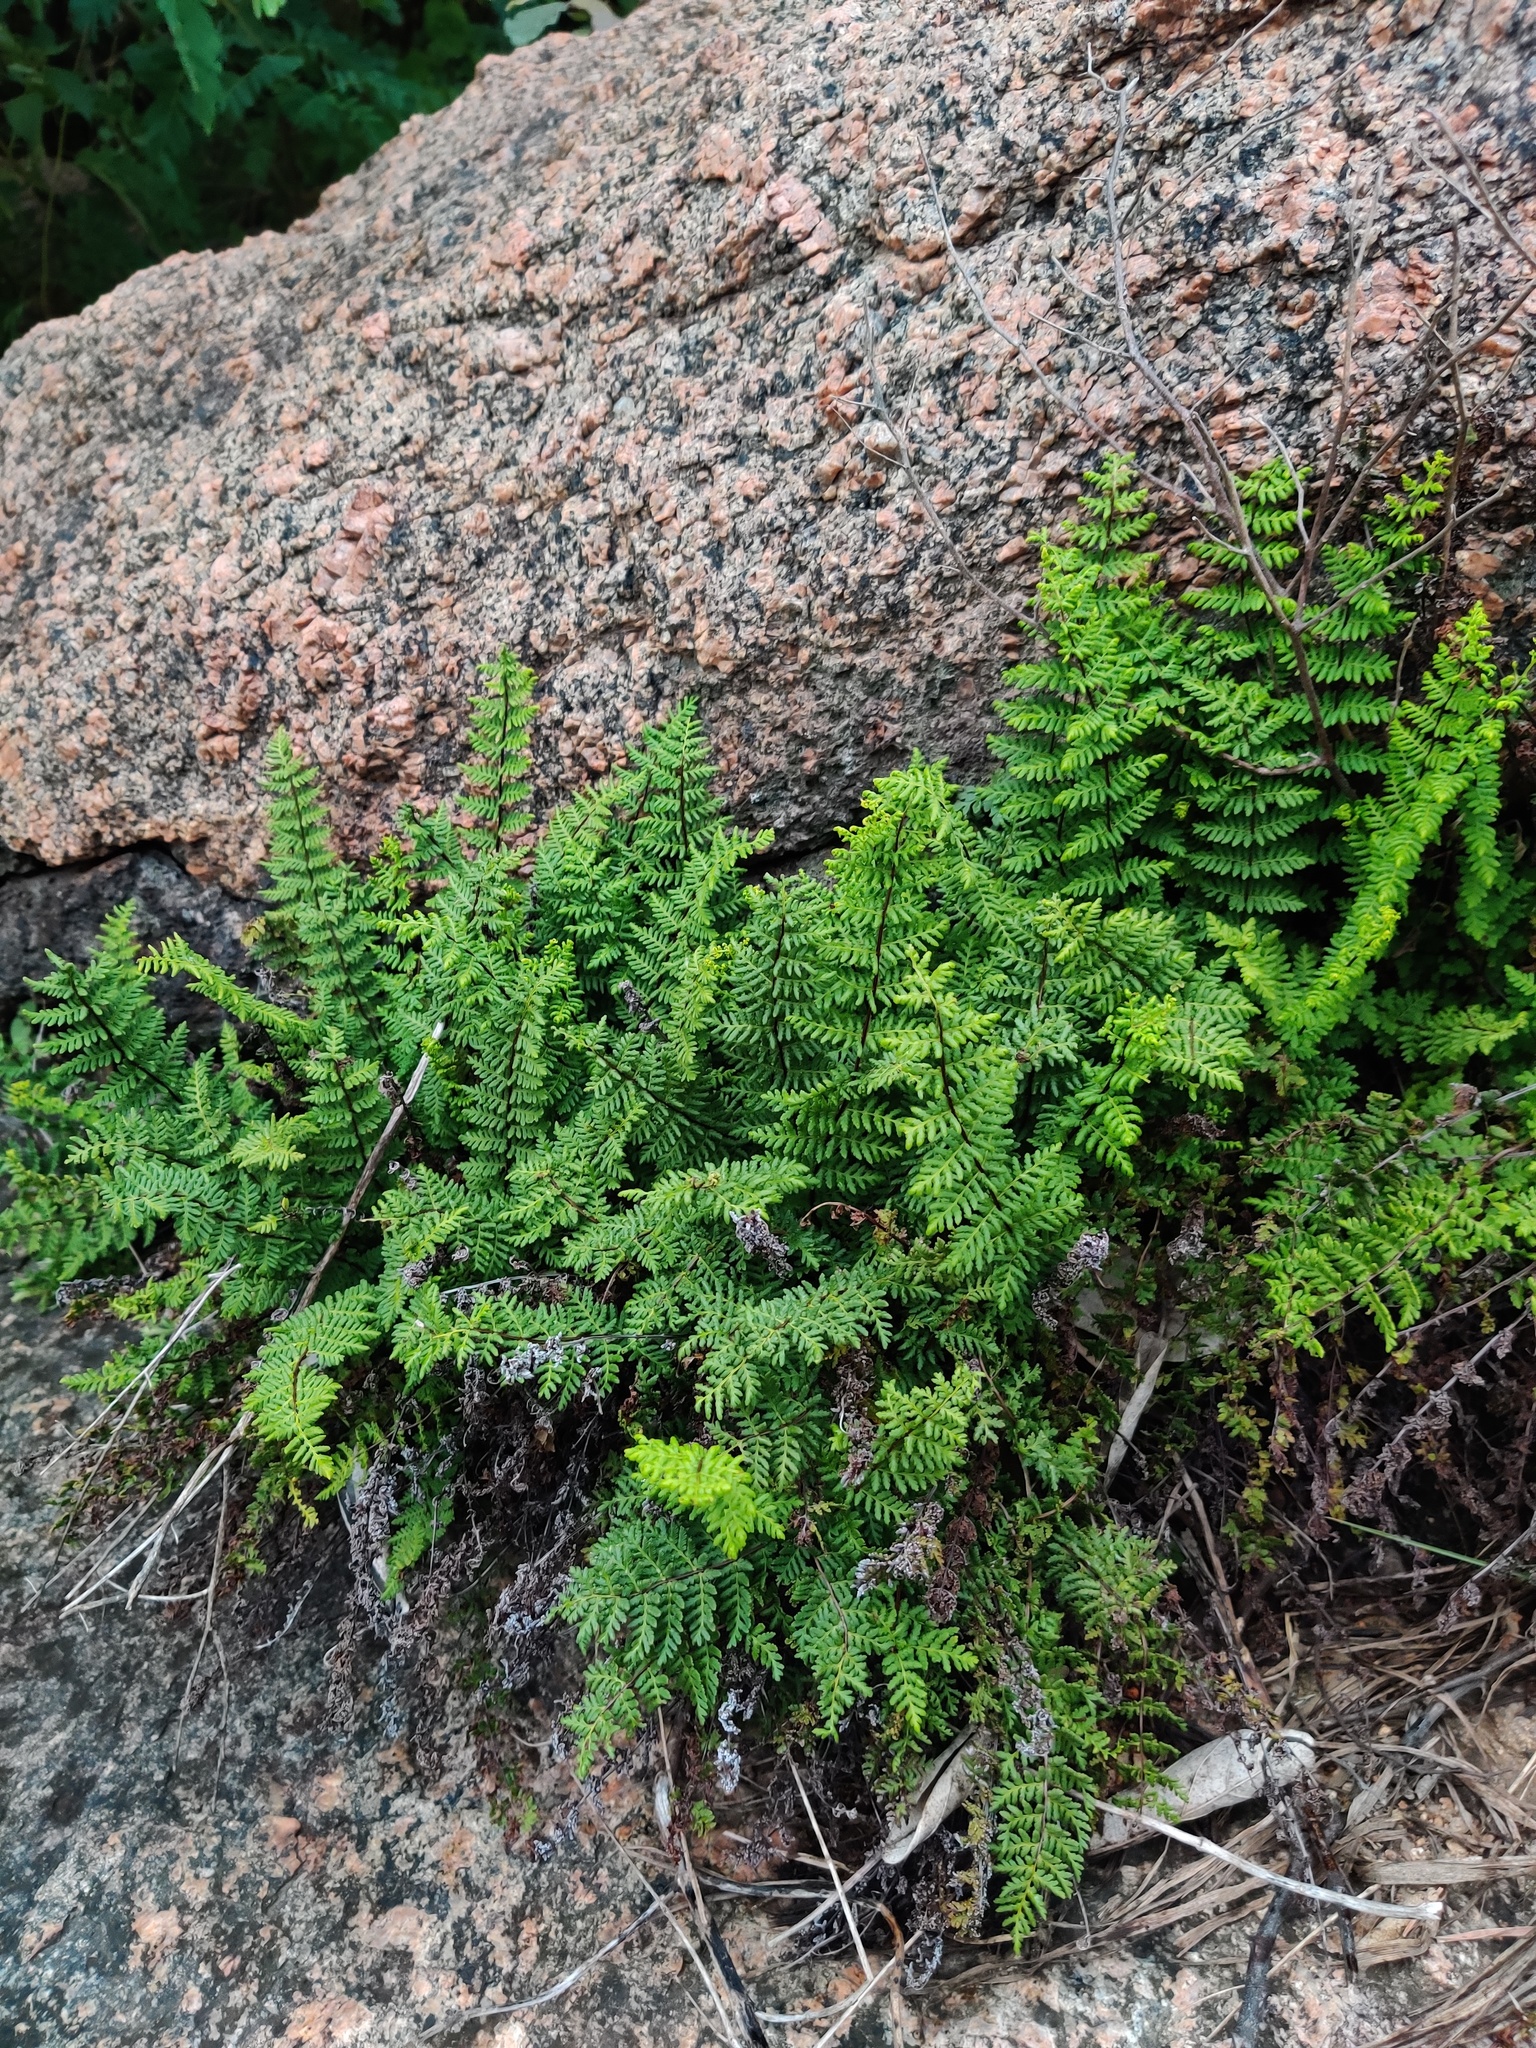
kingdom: Plantae
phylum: Tracheophyta
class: Polypodiopsida
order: Polypodiales
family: Pteridaceae
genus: Oeosporangium
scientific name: Oeosporangium elegans
